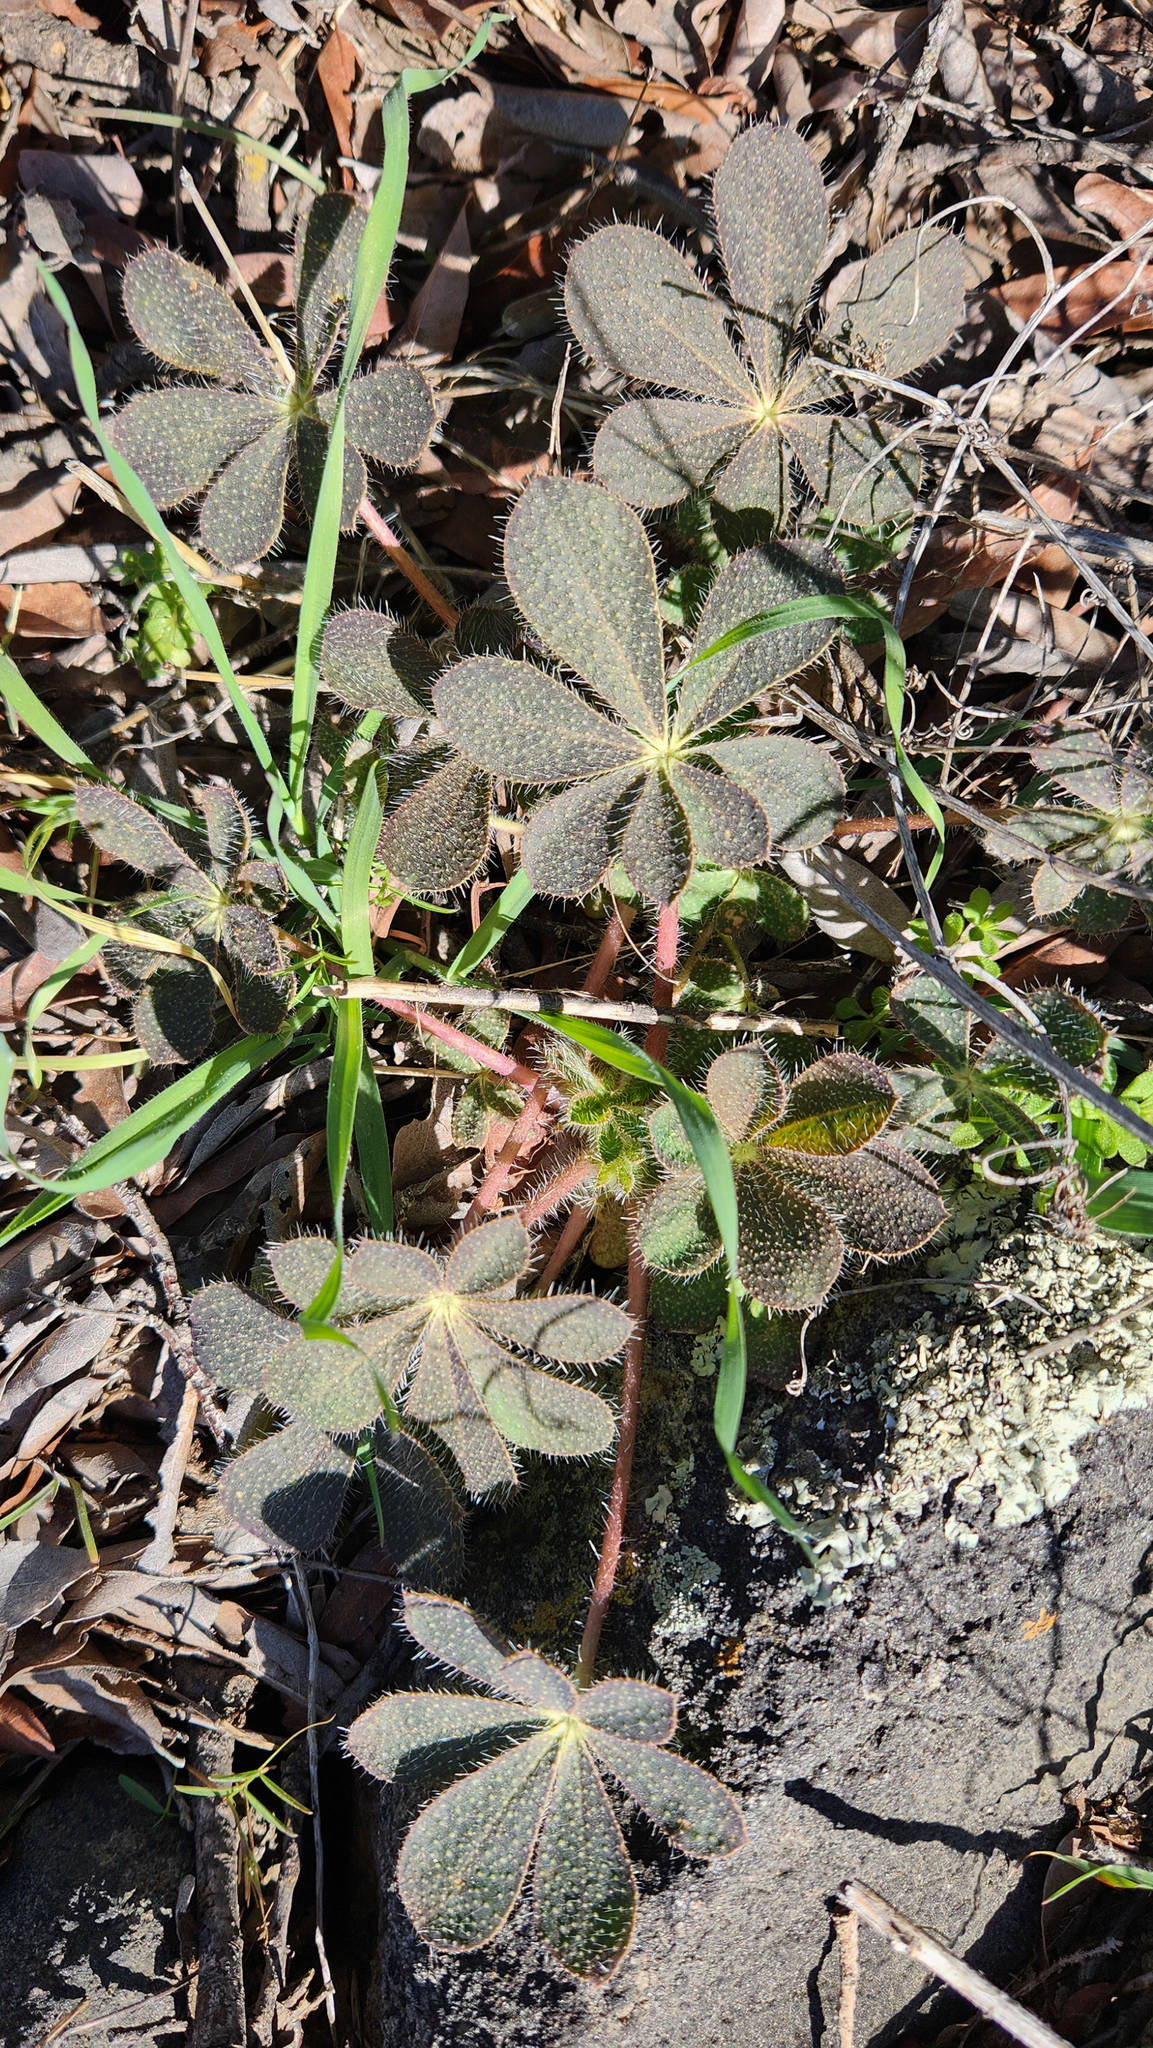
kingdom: Plantae
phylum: Tracheophyta
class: Magnoliopsida
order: Fabales
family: Fabaceae
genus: Lupinus
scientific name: Lupinus hirsutissimus
